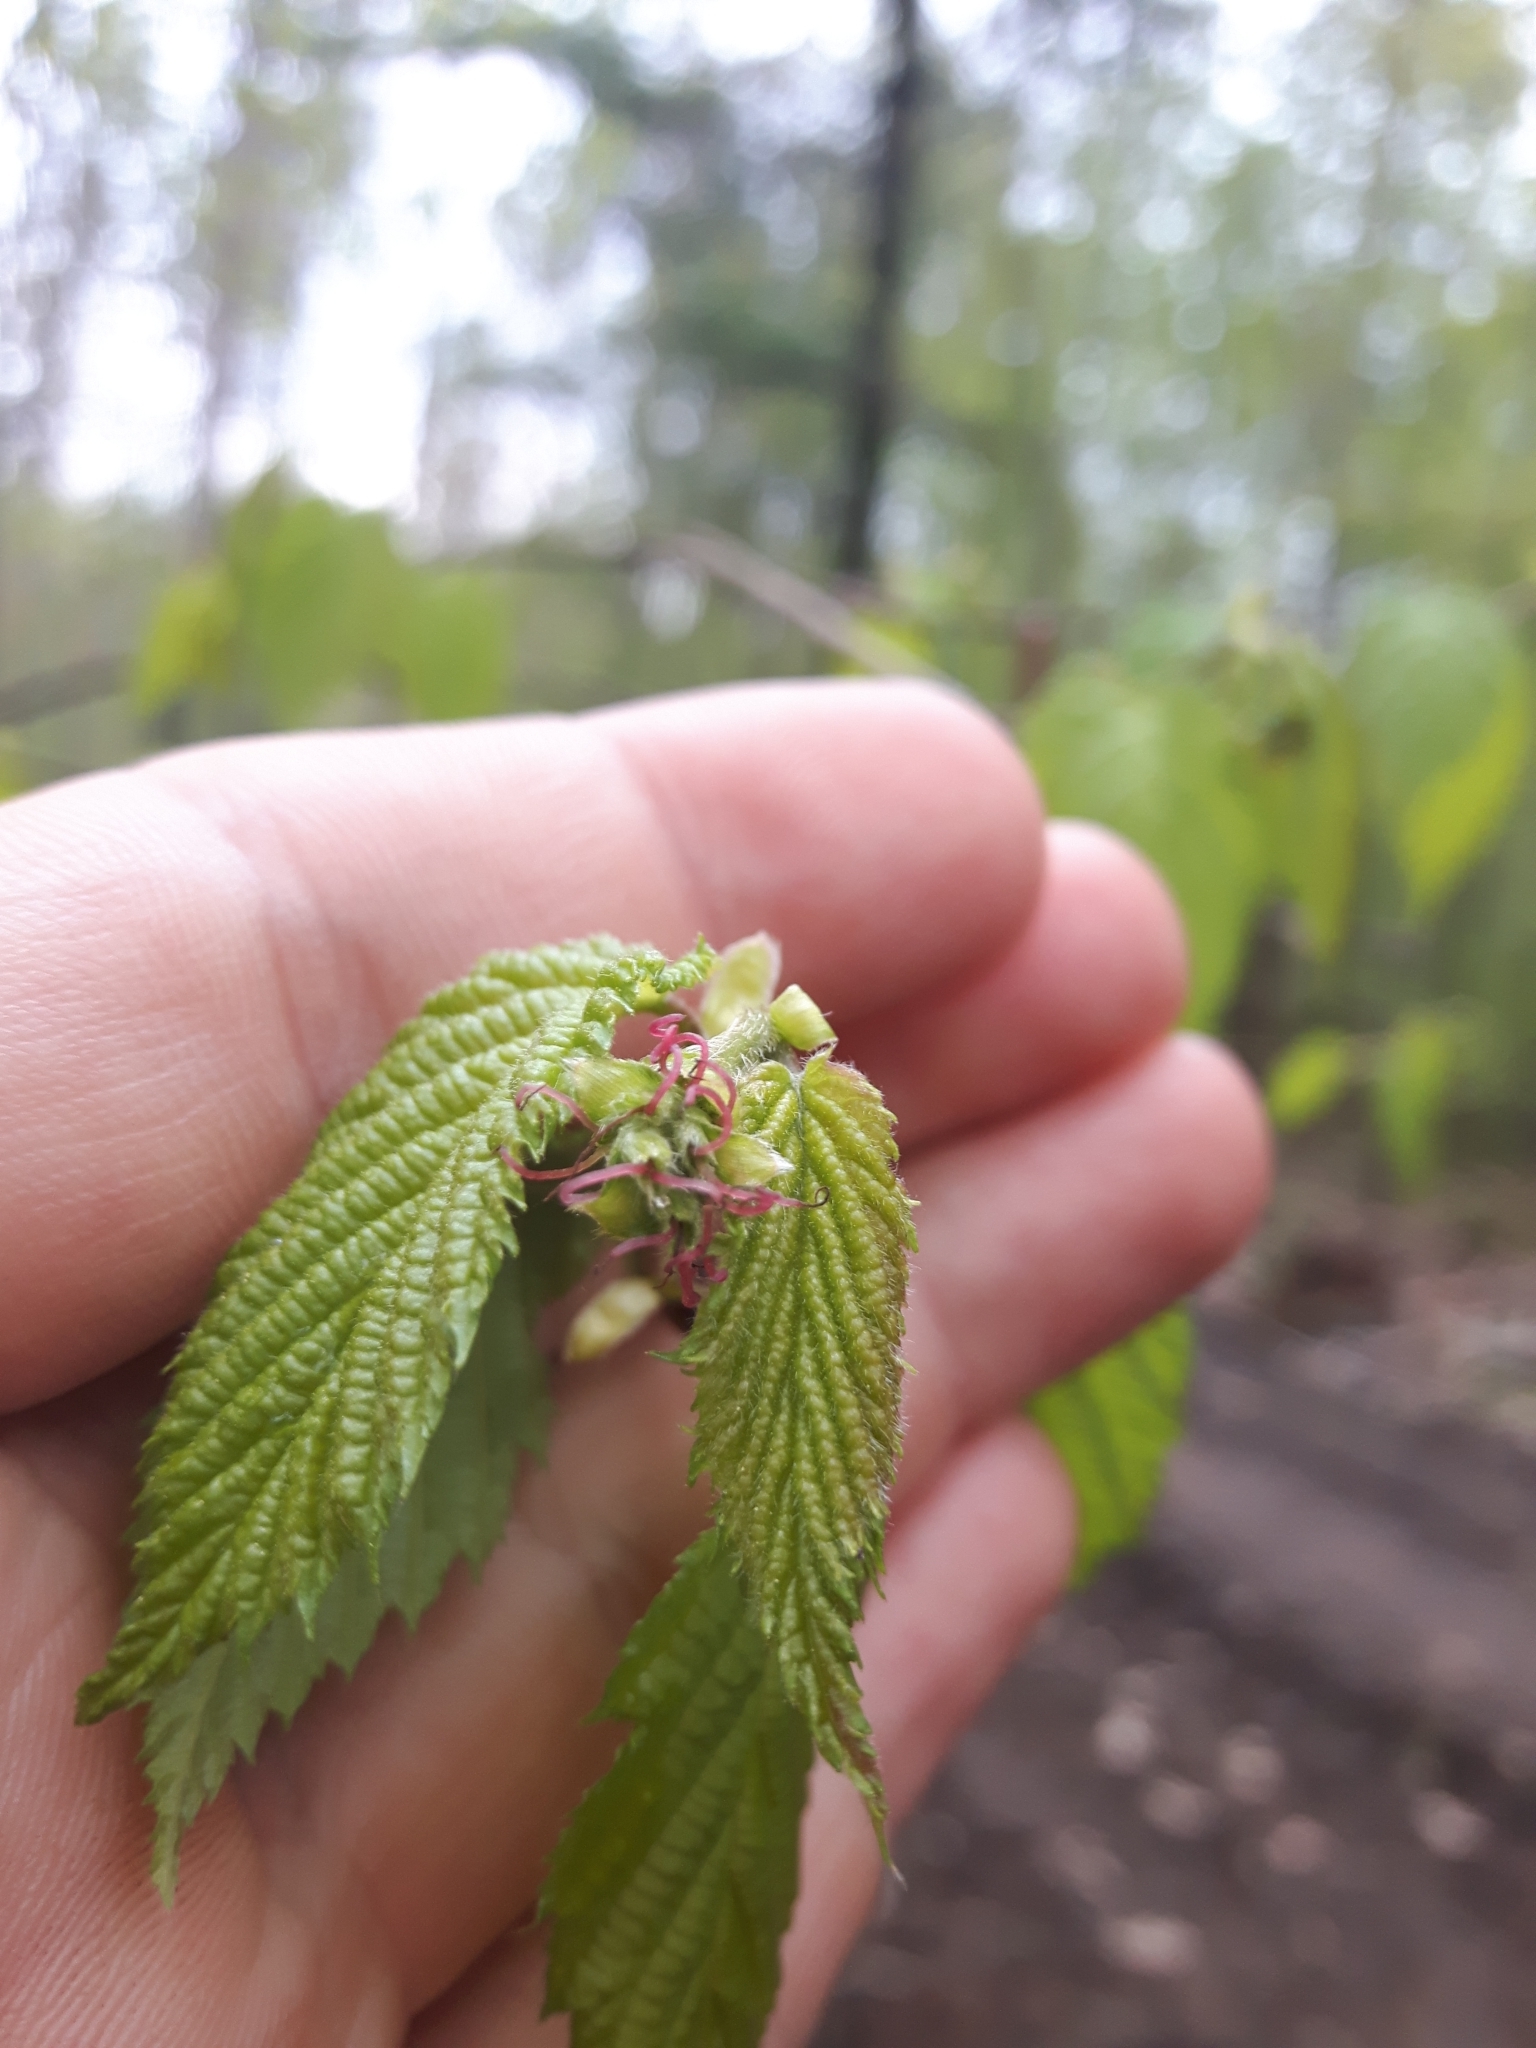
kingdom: Plantae
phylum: Tracheophyta
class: Magnoliopsida
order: Fagales
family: Betulaceae
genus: Corylus
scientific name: Corylus cornuta
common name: Beaked hazel
